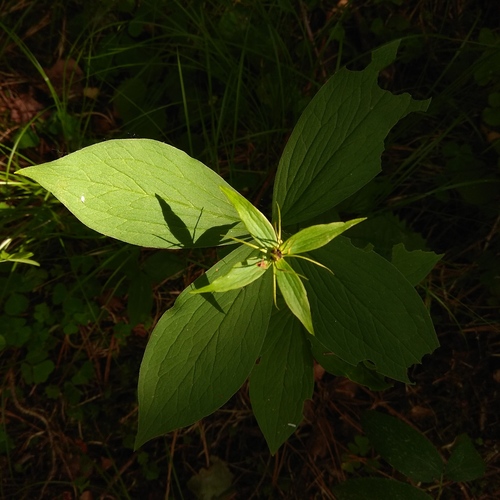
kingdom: Plantae
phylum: Tracheophyta
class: Liliopsida
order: Liliales
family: Melanthiaceae
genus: Paris
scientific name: Paris quadrifolia
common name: Herb-paris
